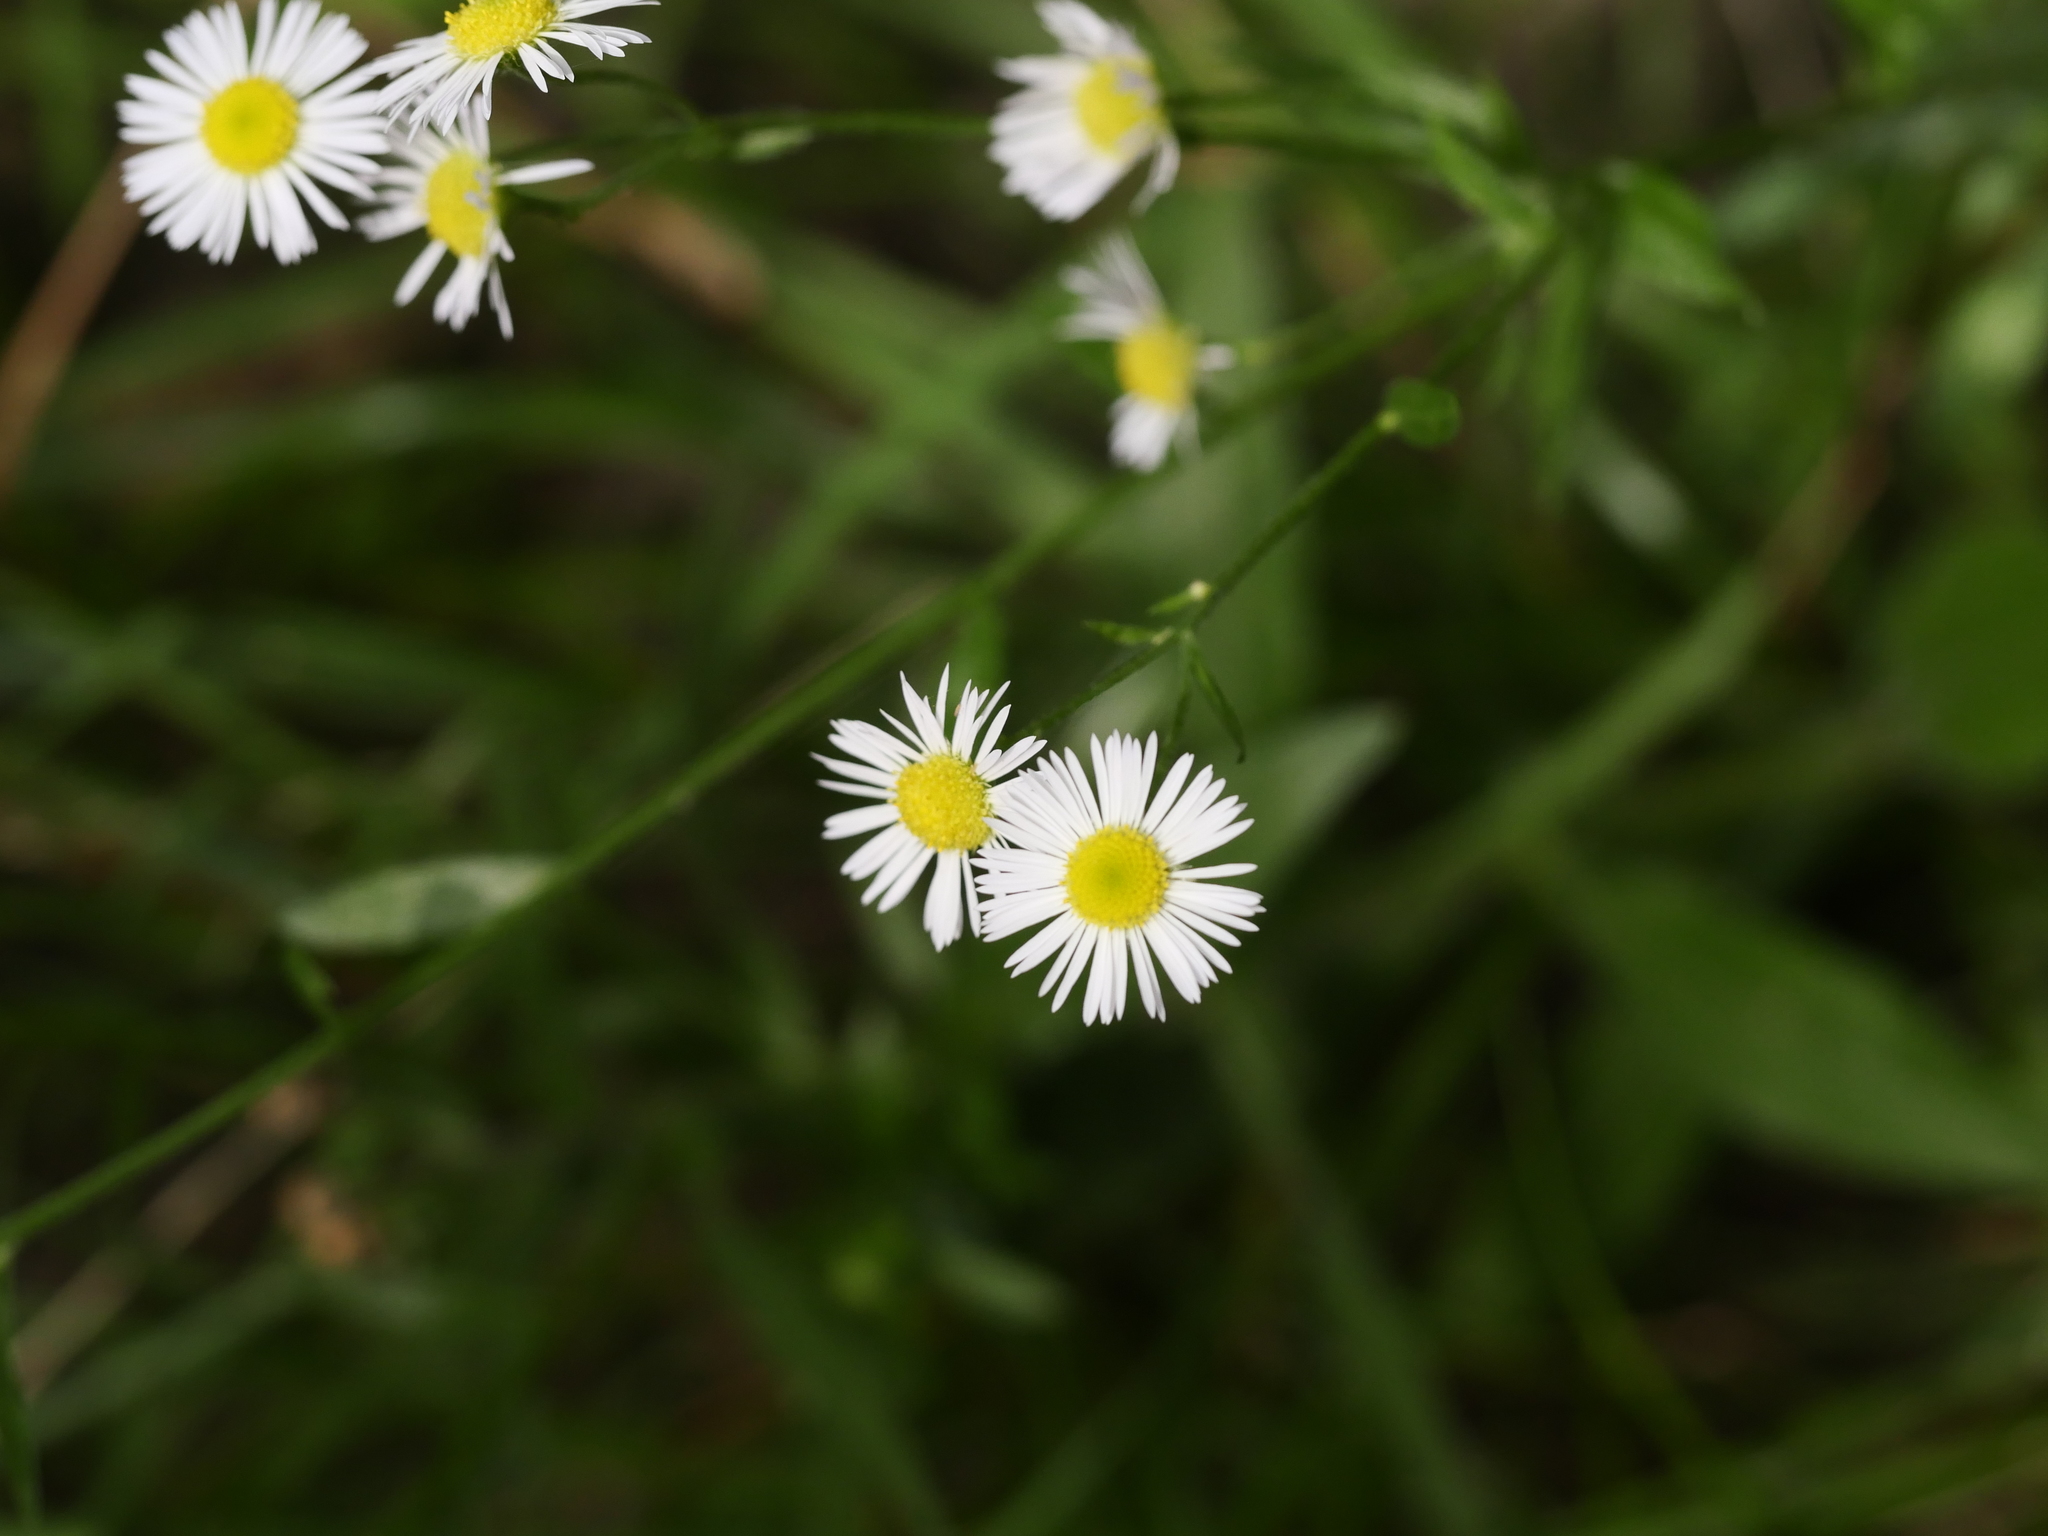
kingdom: Plantae
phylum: Tracheophyta
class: Magnoliopsida
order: Asterales
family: Asteraceae
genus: Erigeron
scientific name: Erigeron annuus
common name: Tall fleabane
